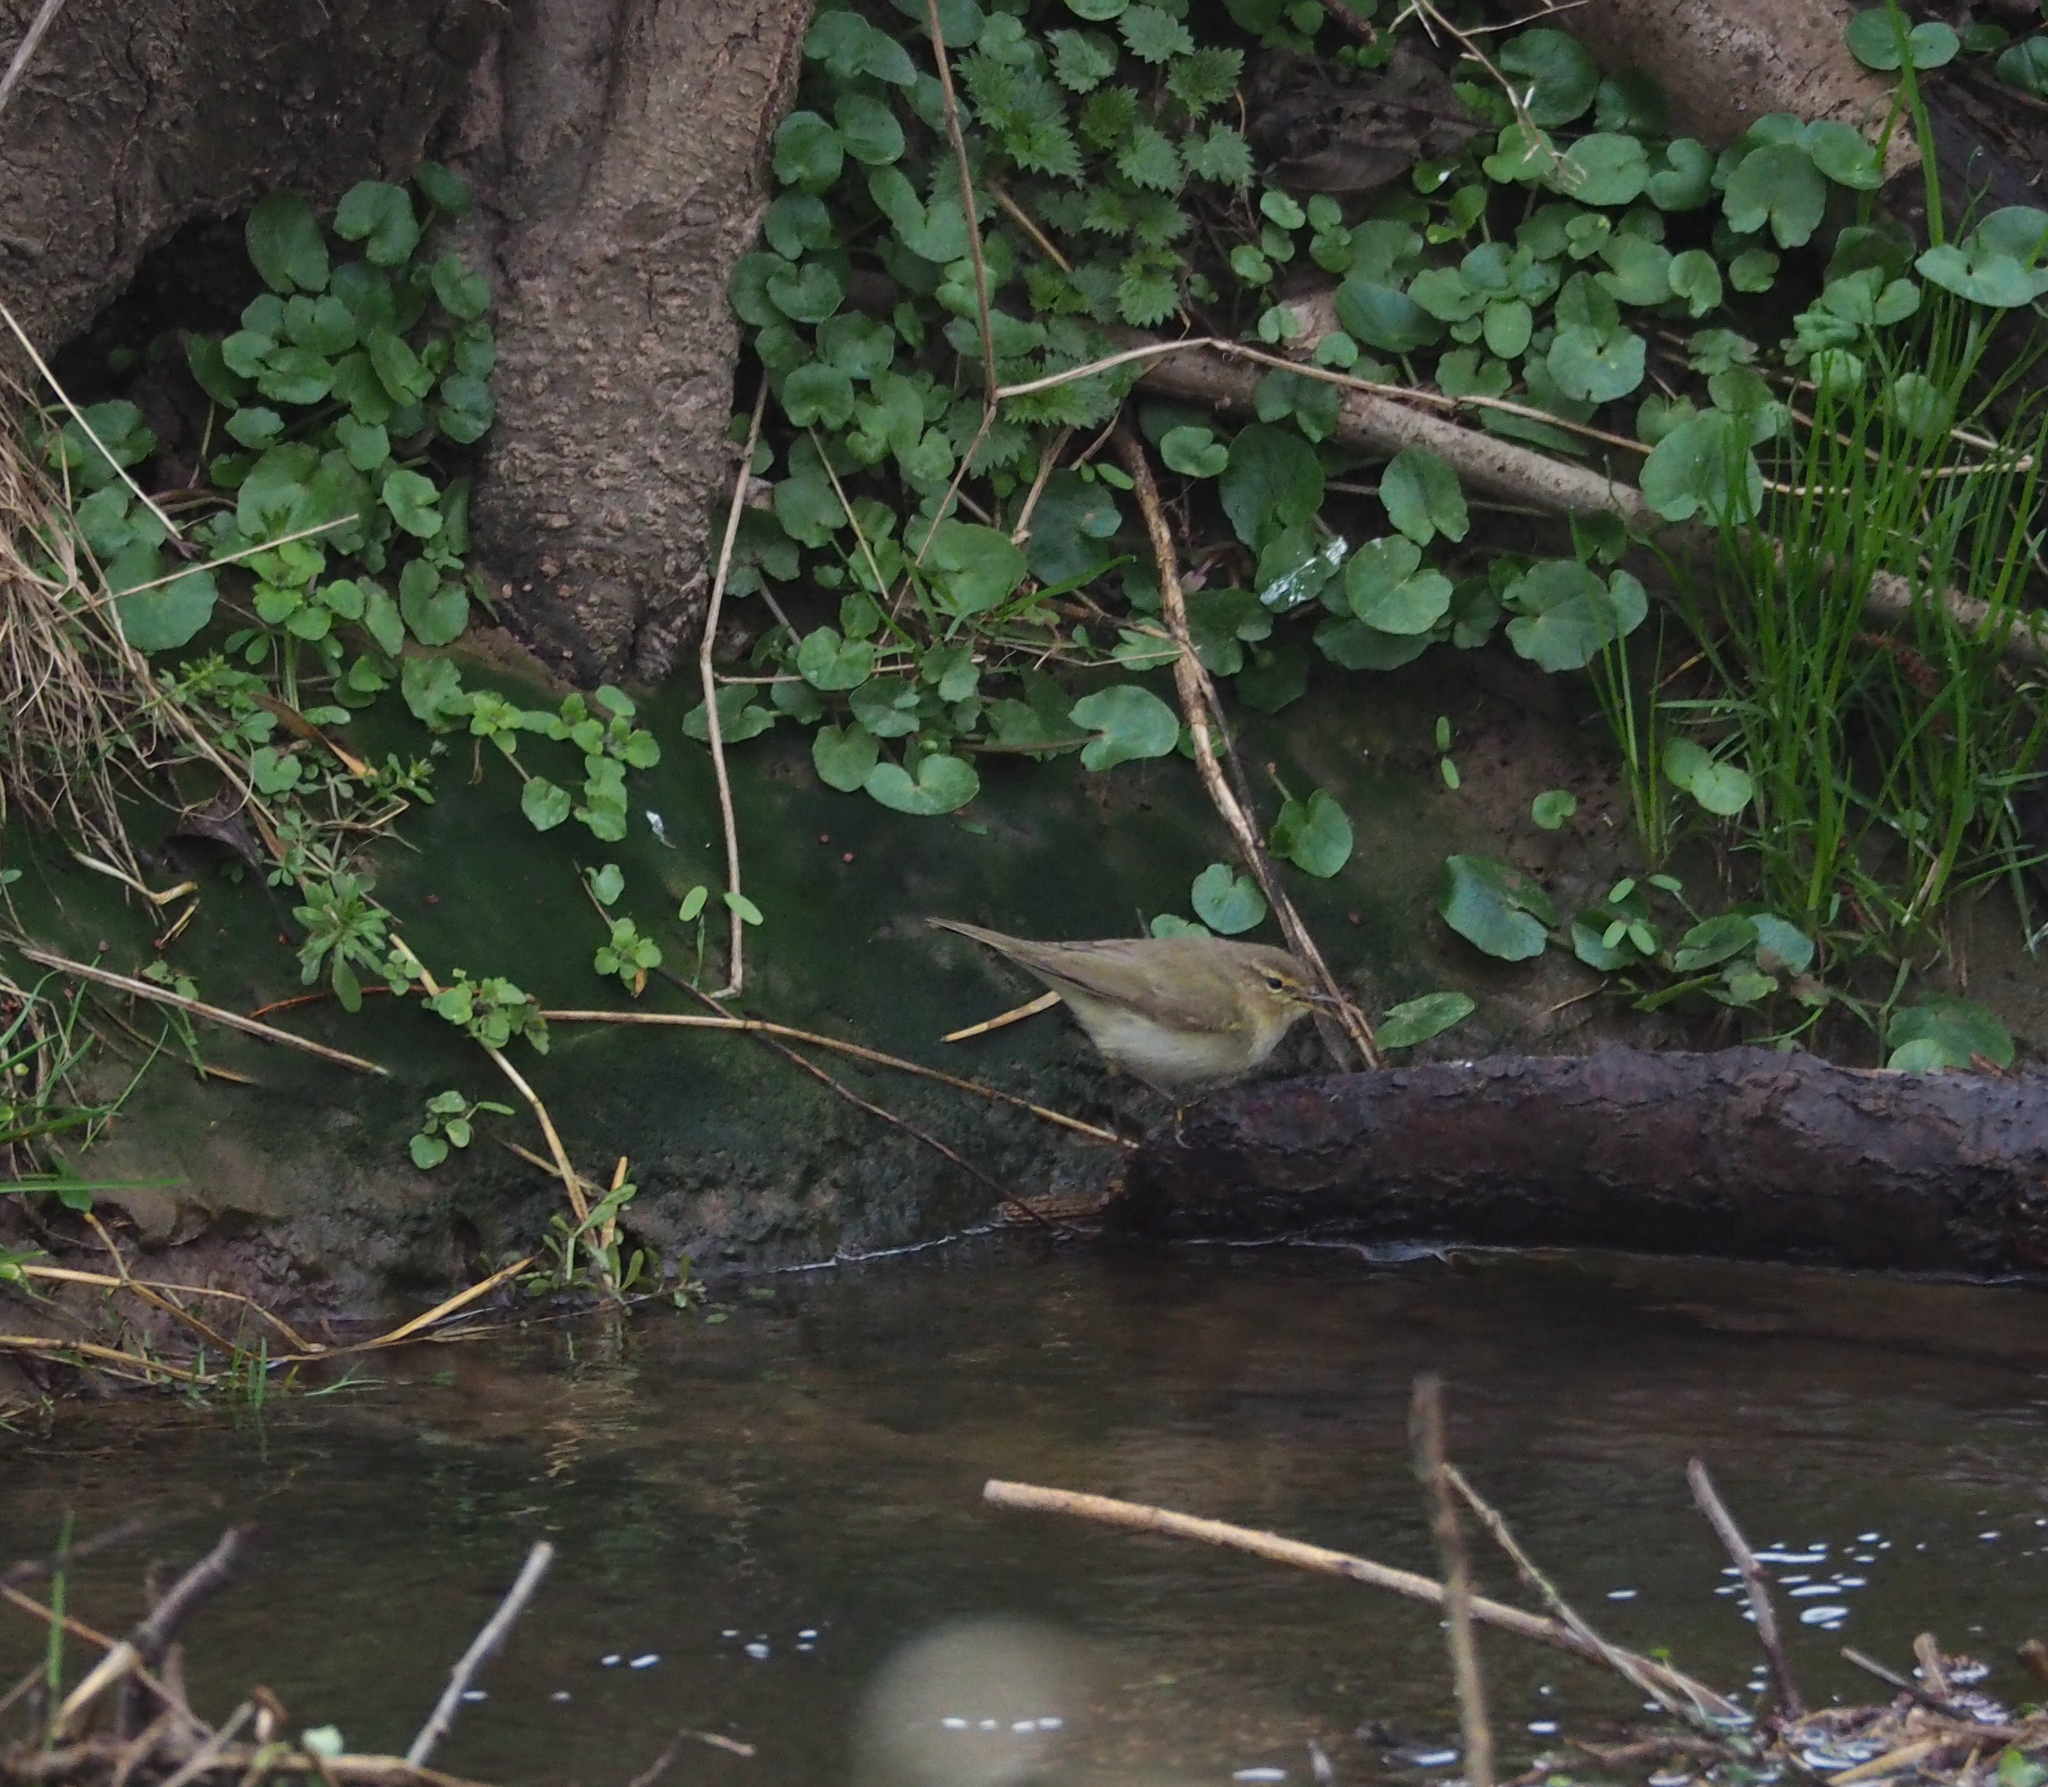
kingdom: Animalia
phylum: Chordata
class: Aves
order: Passeriformes
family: Phylloscopidae
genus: Phylloscopus
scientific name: Phylloscopus collybita
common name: Common chiffchaff
